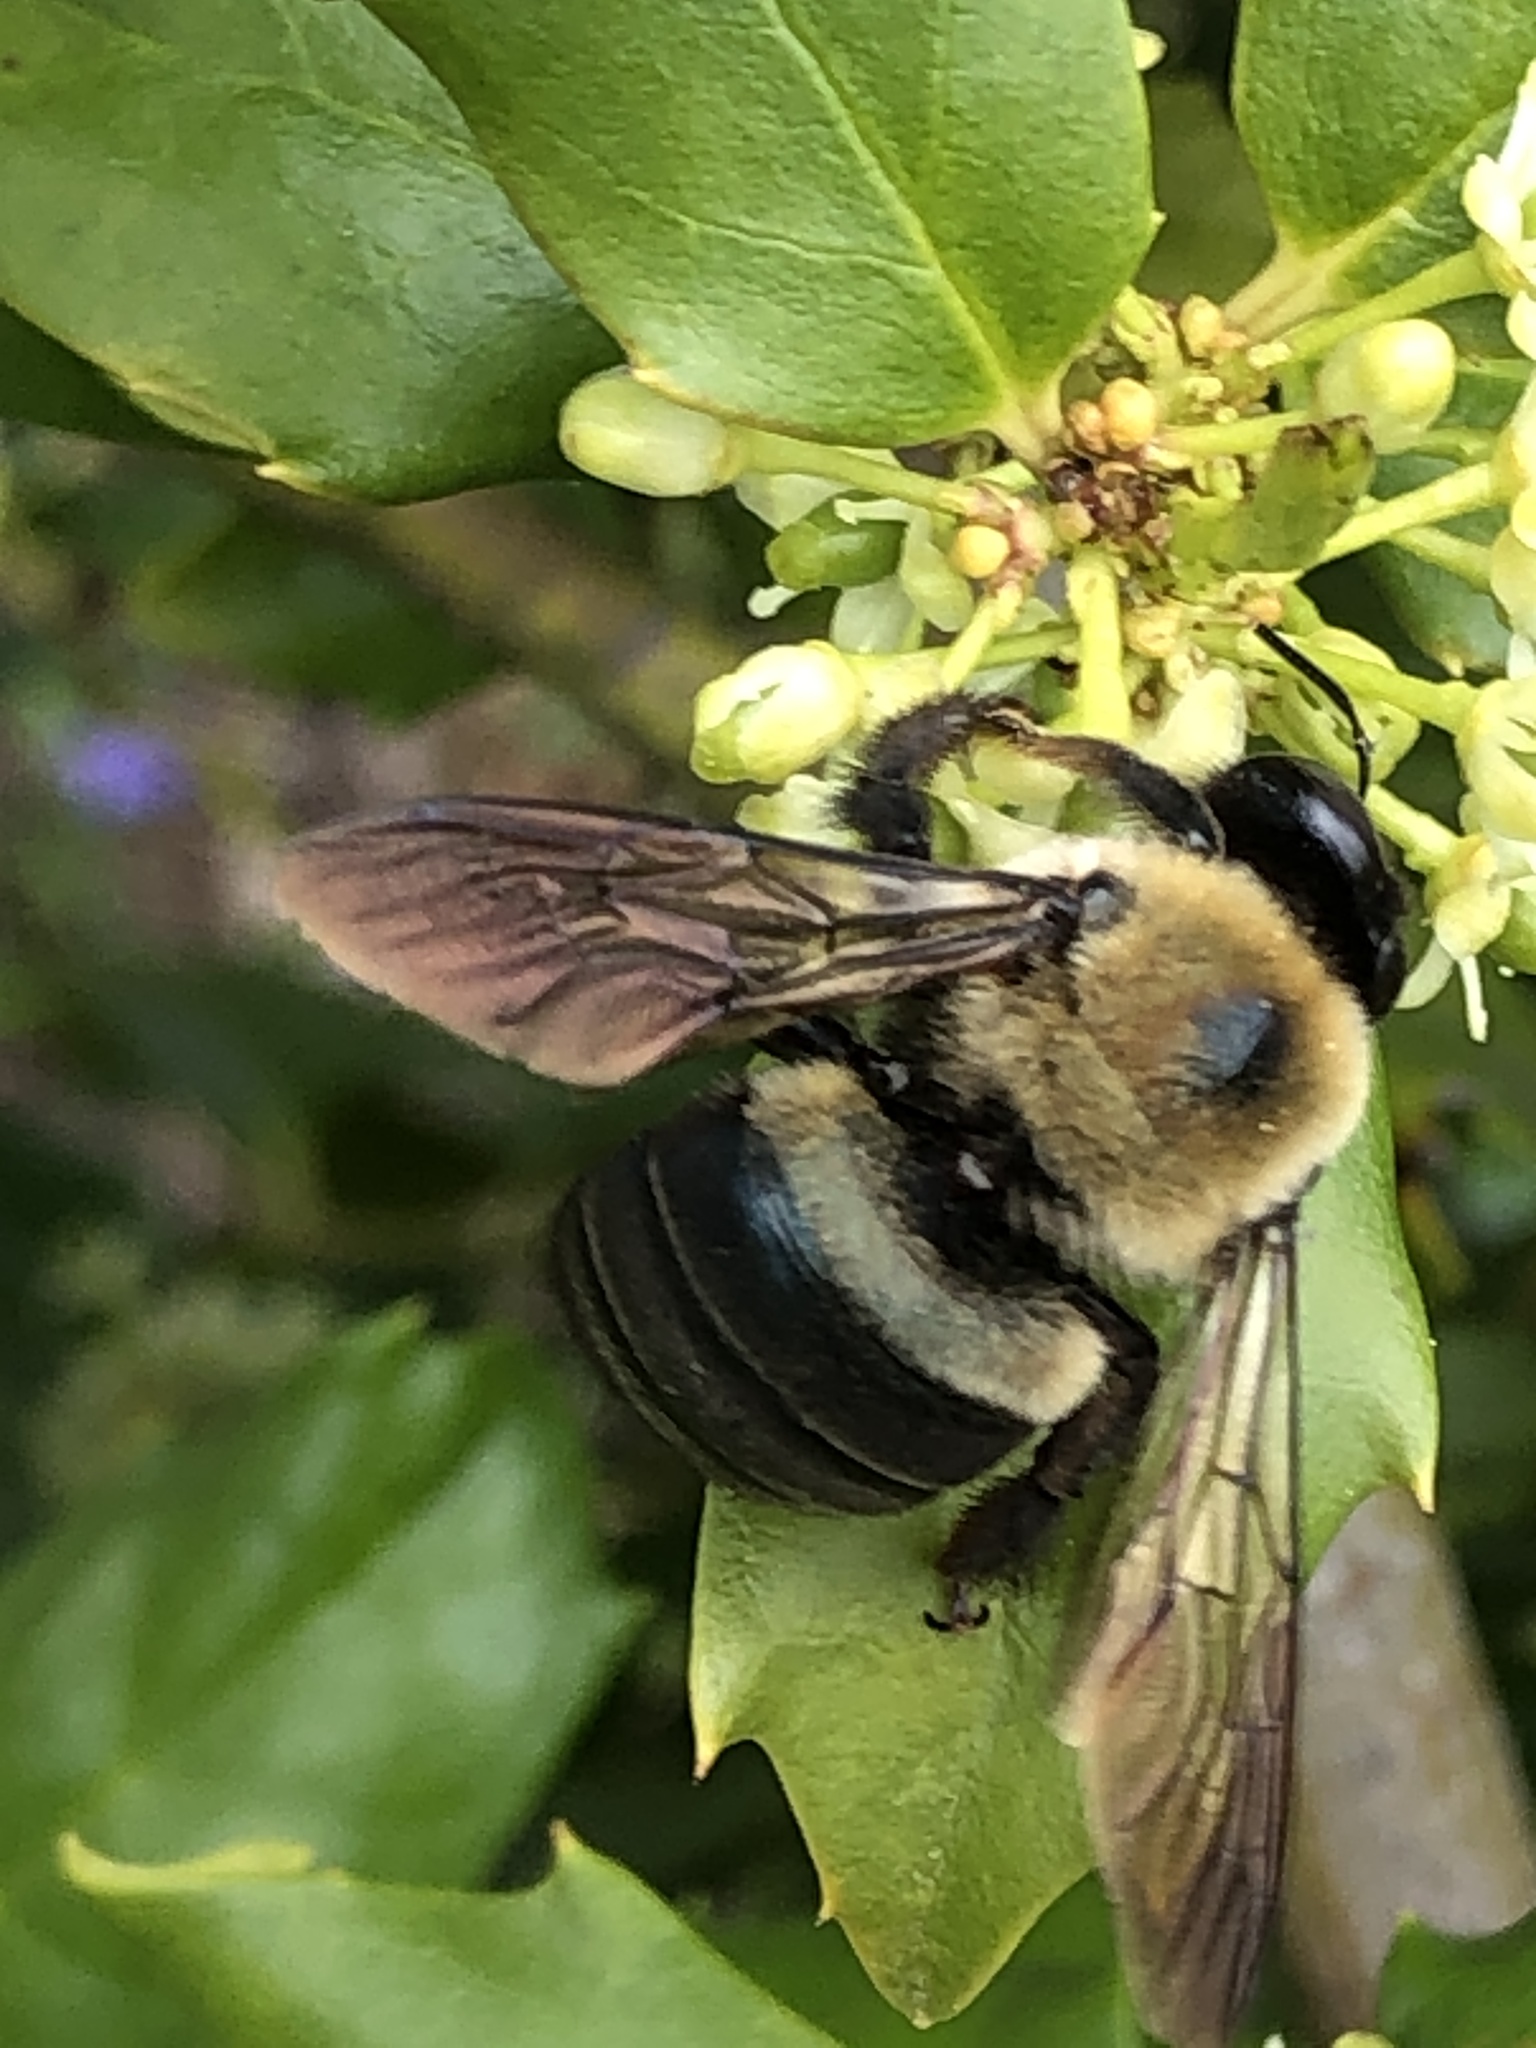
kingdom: Animalia
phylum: Arthropoda
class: Insecta
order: Hymenoptera
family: Apidae
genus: Xylocopa
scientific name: Xylocopa virginica
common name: Carpenter bee
